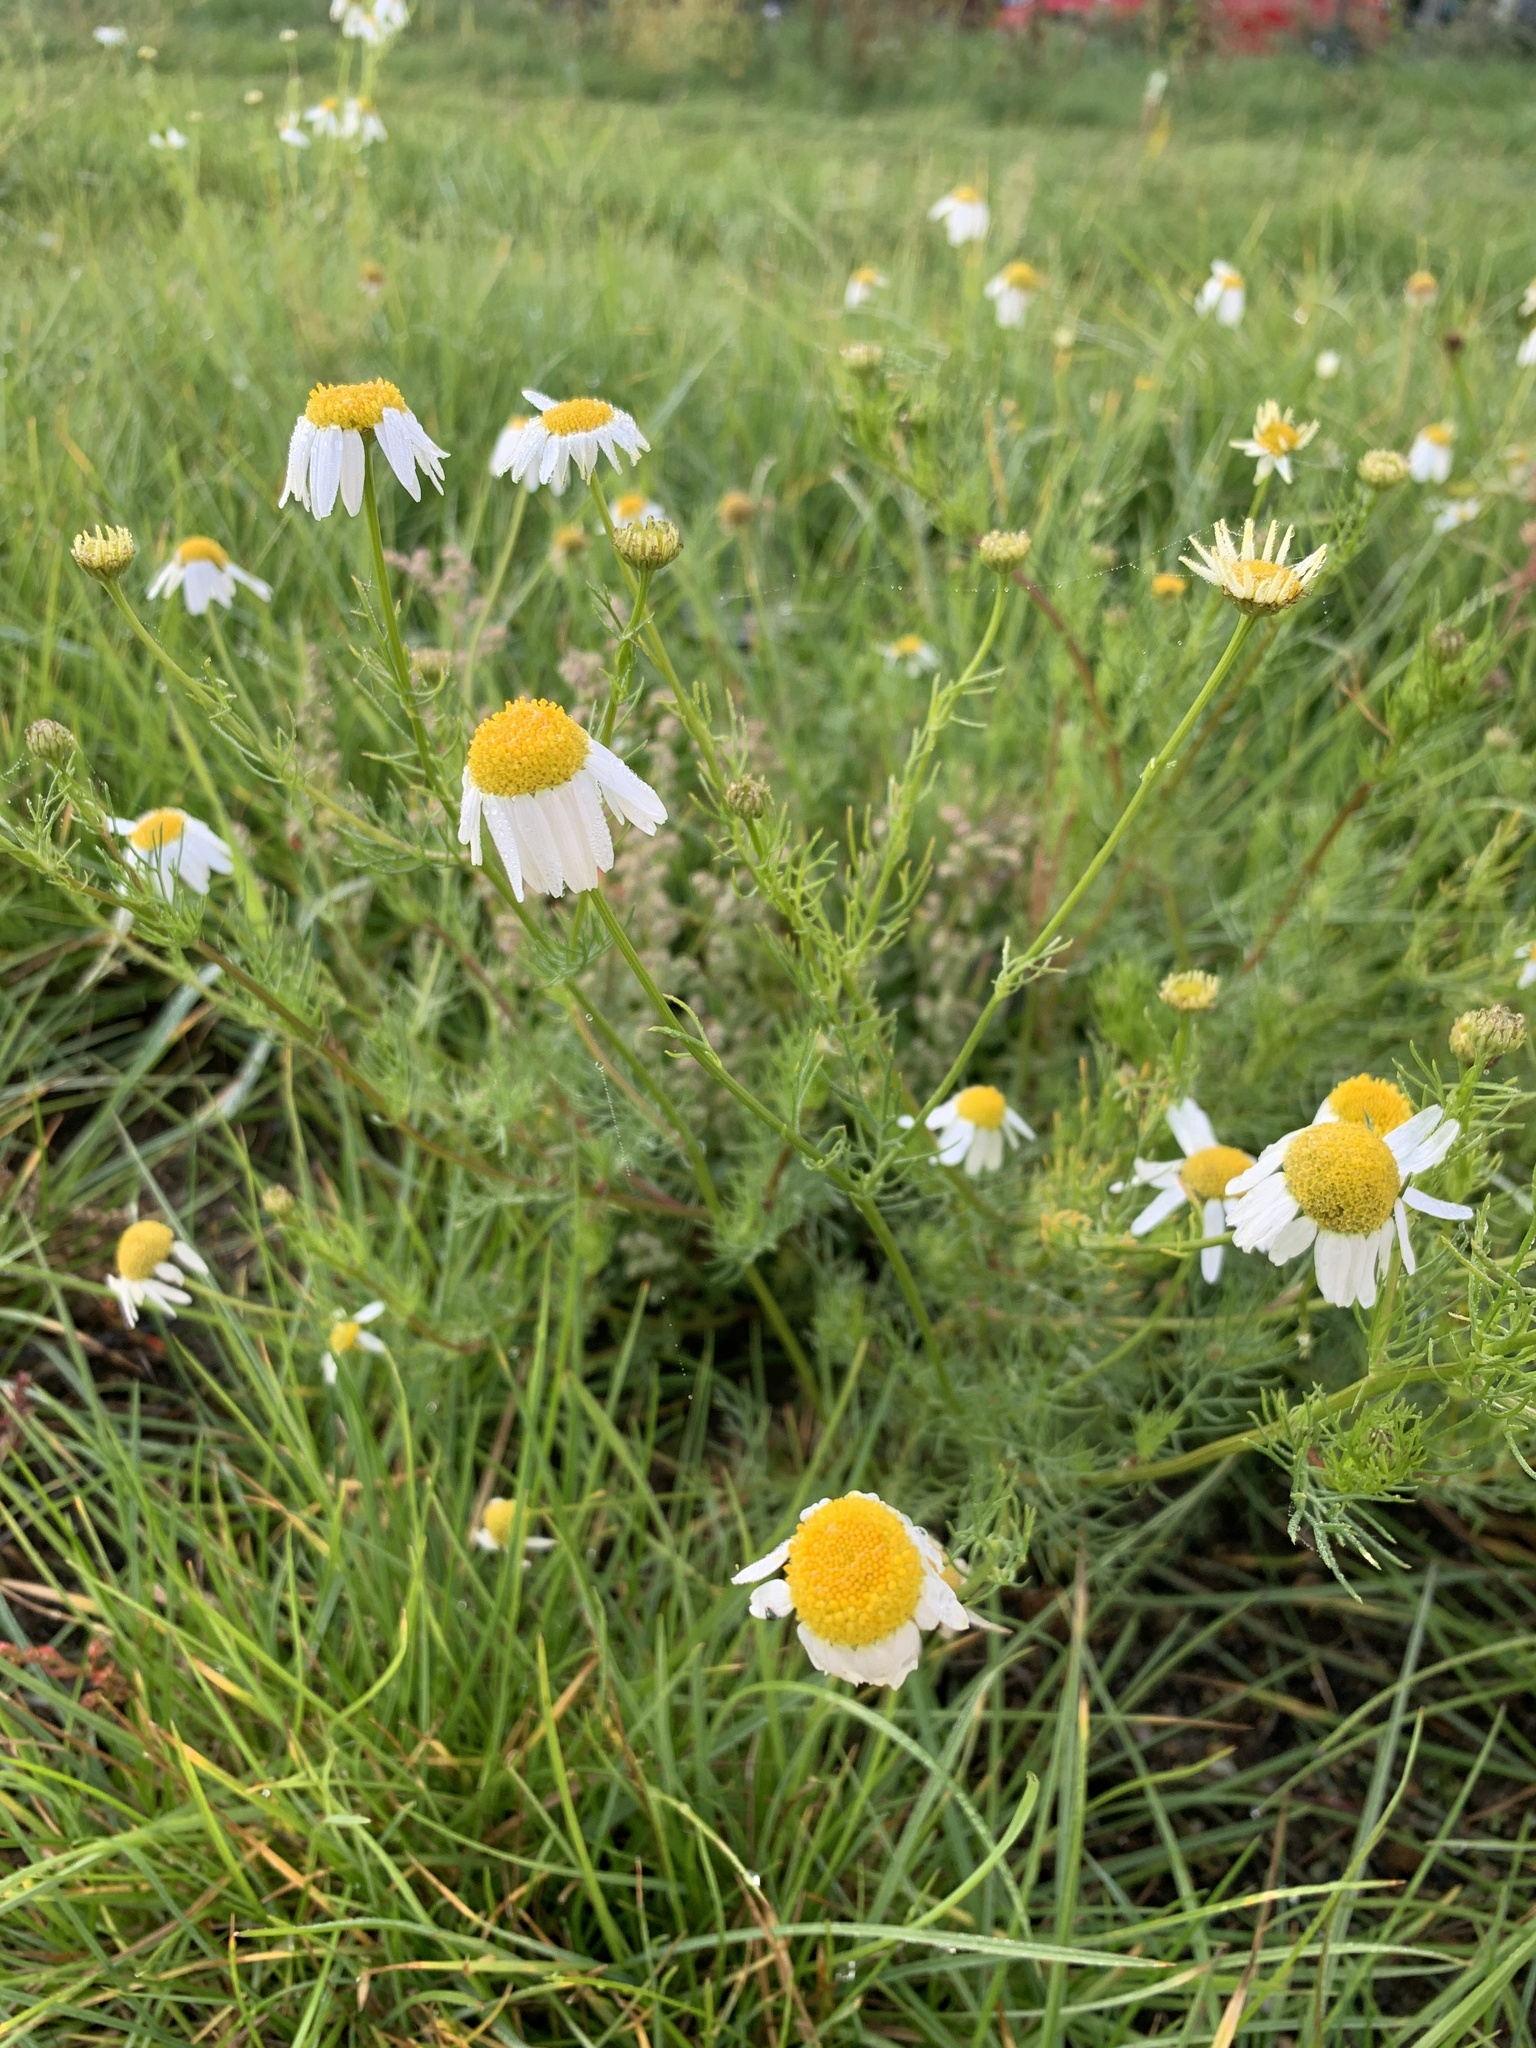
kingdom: Plantae
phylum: Tracheophyta
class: Magnoliopsida
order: Asterales
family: Asteraceae
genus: Tripleurospermum
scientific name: Tripleurospermum inodorum
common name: Scentless mayweed
